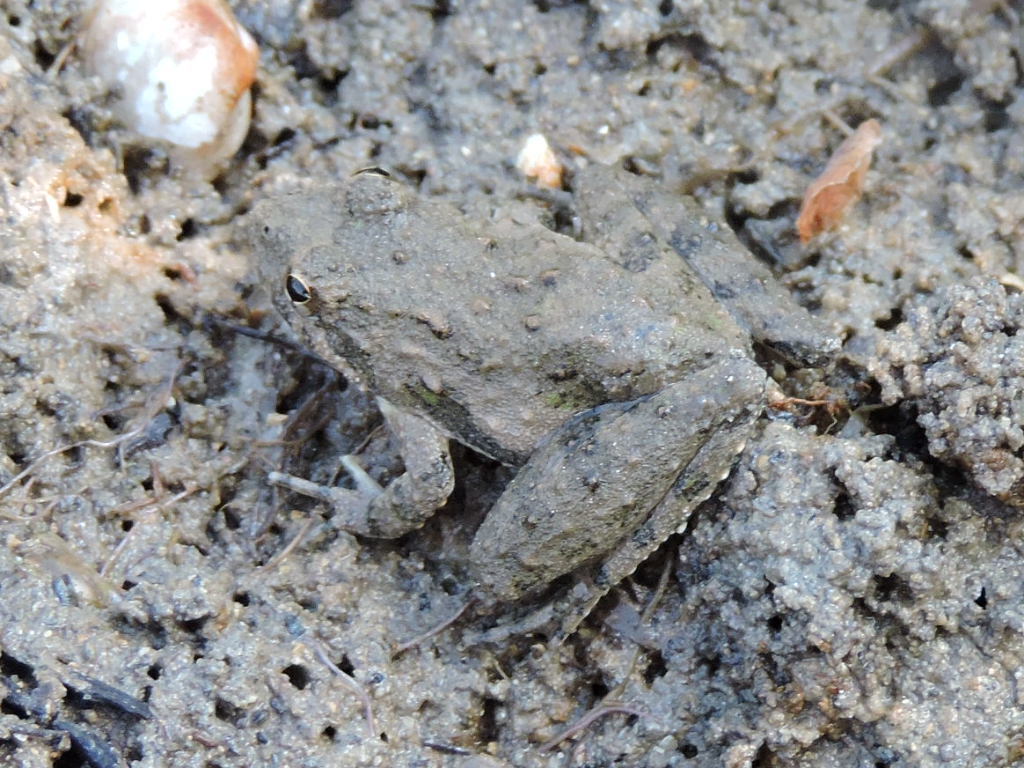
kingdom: Animalia
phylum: Chordata
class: Amphibia
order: Anura
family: Hylidae
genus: Acris
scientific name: Acris blanchardi
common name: Blanchard's cricket frog
